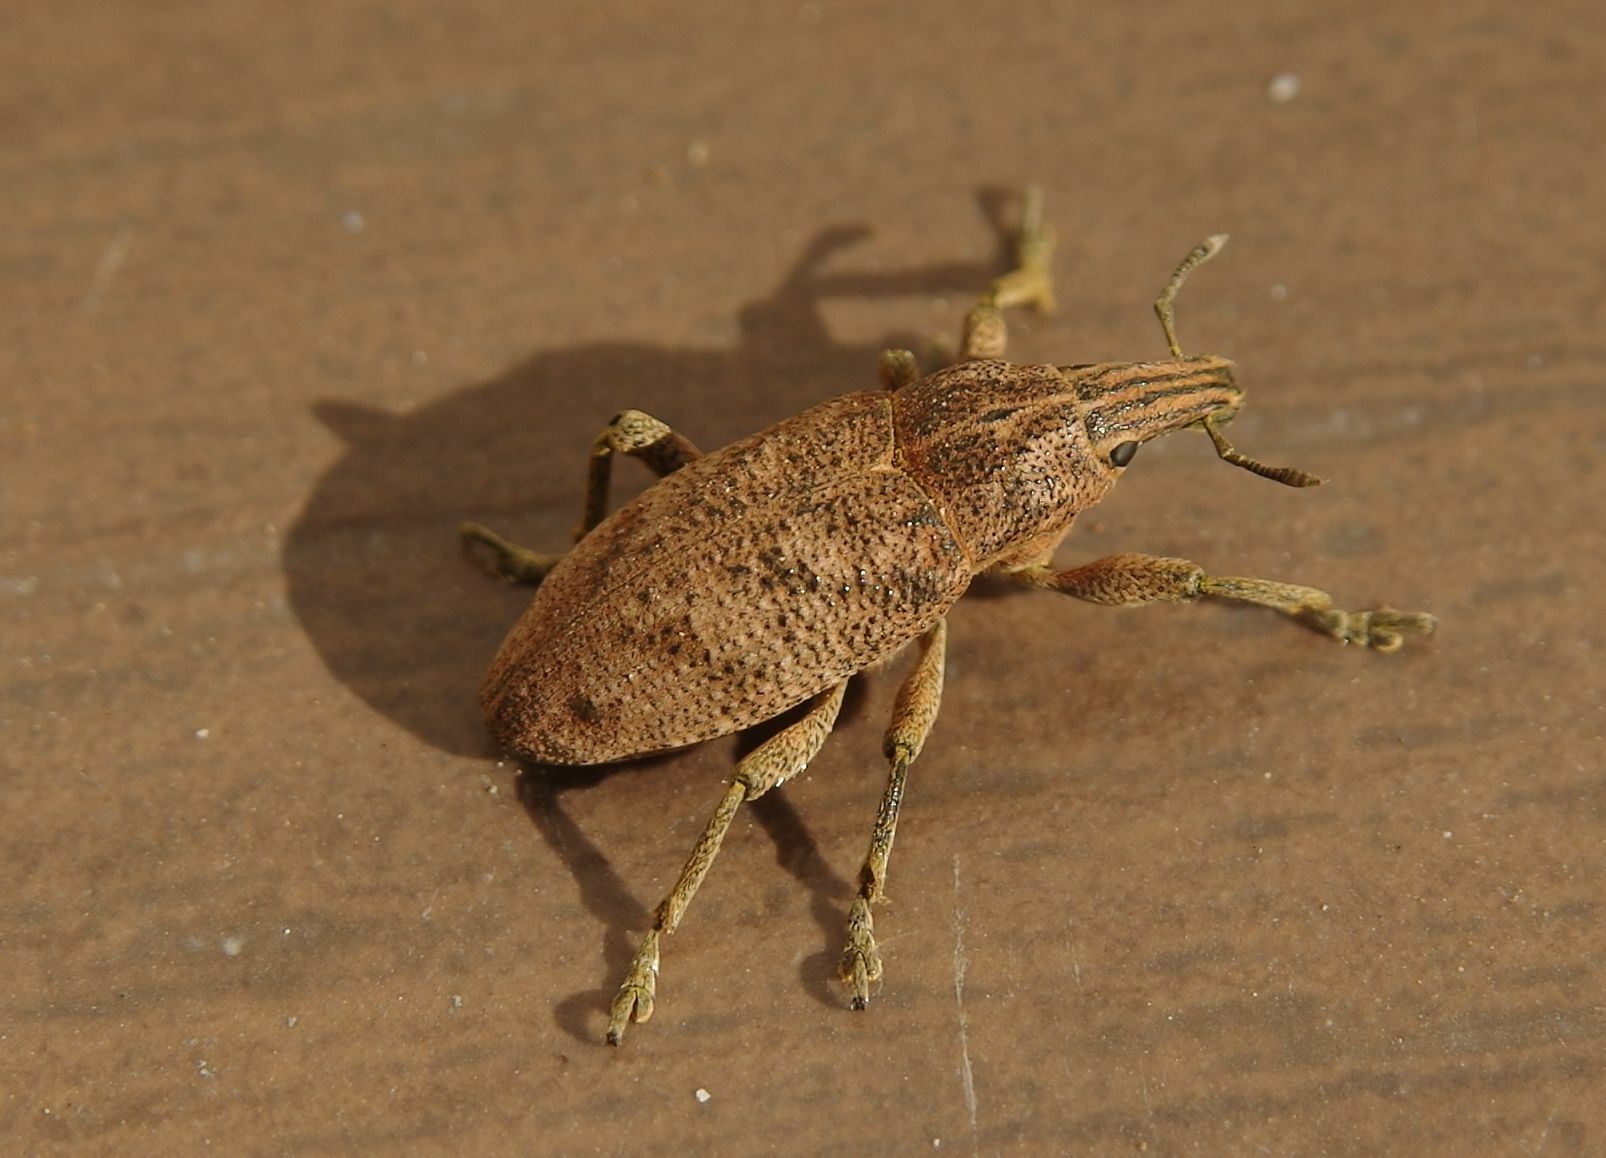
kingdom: Animalia
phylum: Arthropoda
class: Insecta
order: Coleoptera
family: Curculionidae
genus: Cleonis
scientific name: Cleonis pigra
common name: Large thistle weevil
